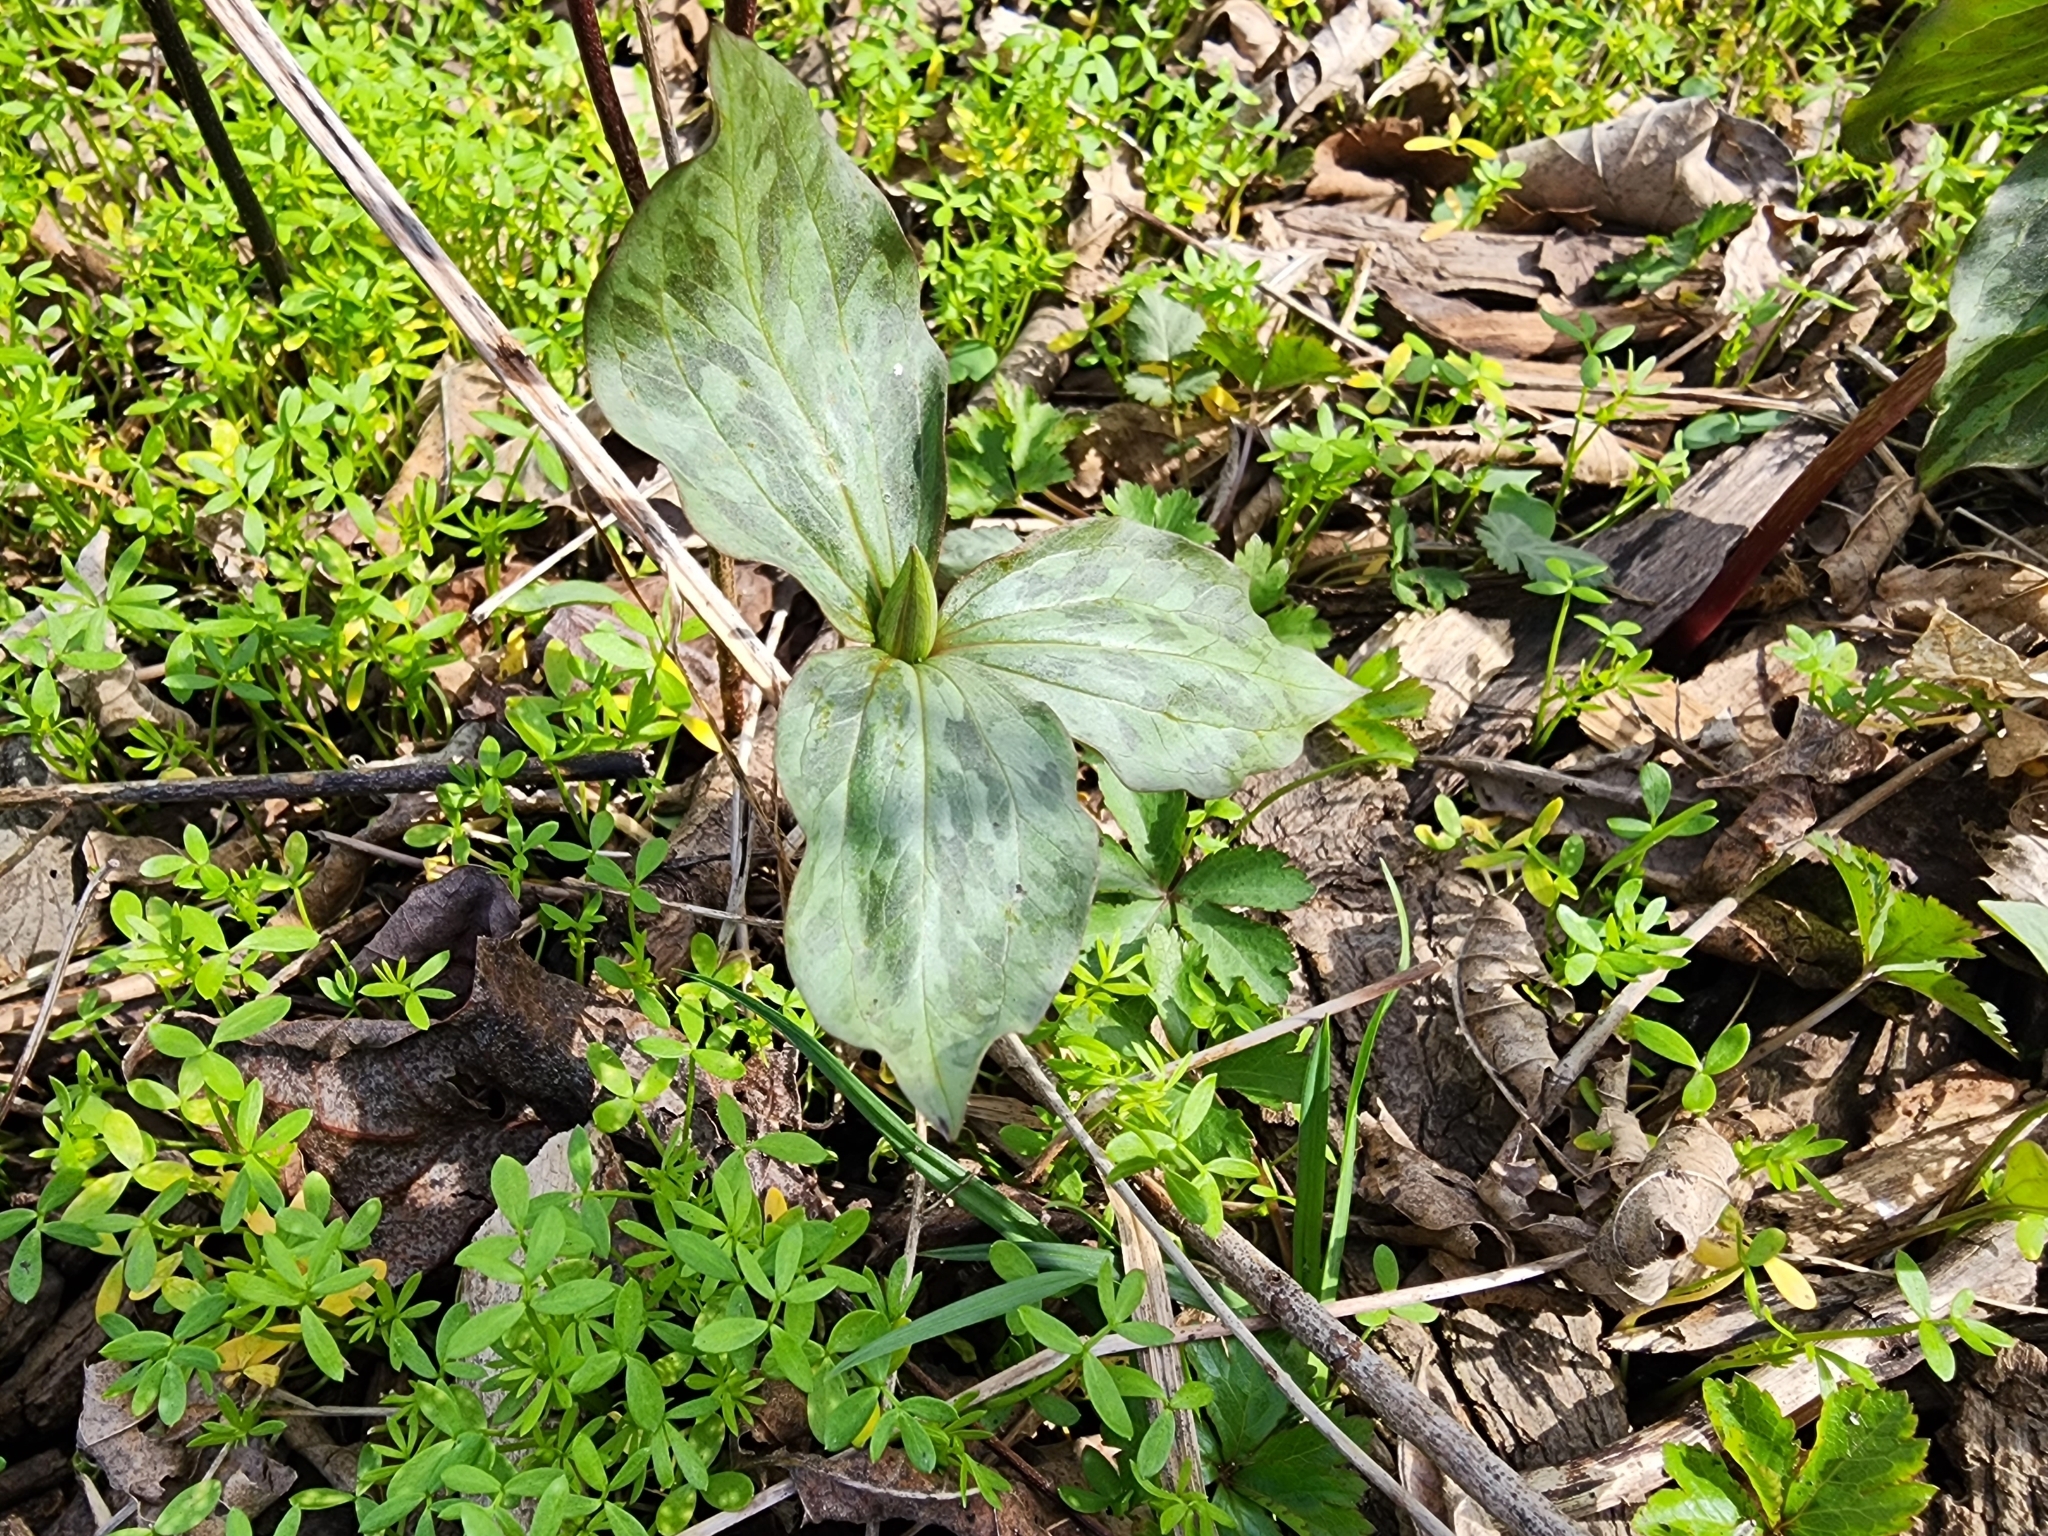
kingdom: Plantae
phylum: Tracheophyta
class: Liliopsida
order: Liliales
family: Melanthiaceae
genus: Trillium
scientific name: Trillium recurvatum
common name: Bloody butcher
